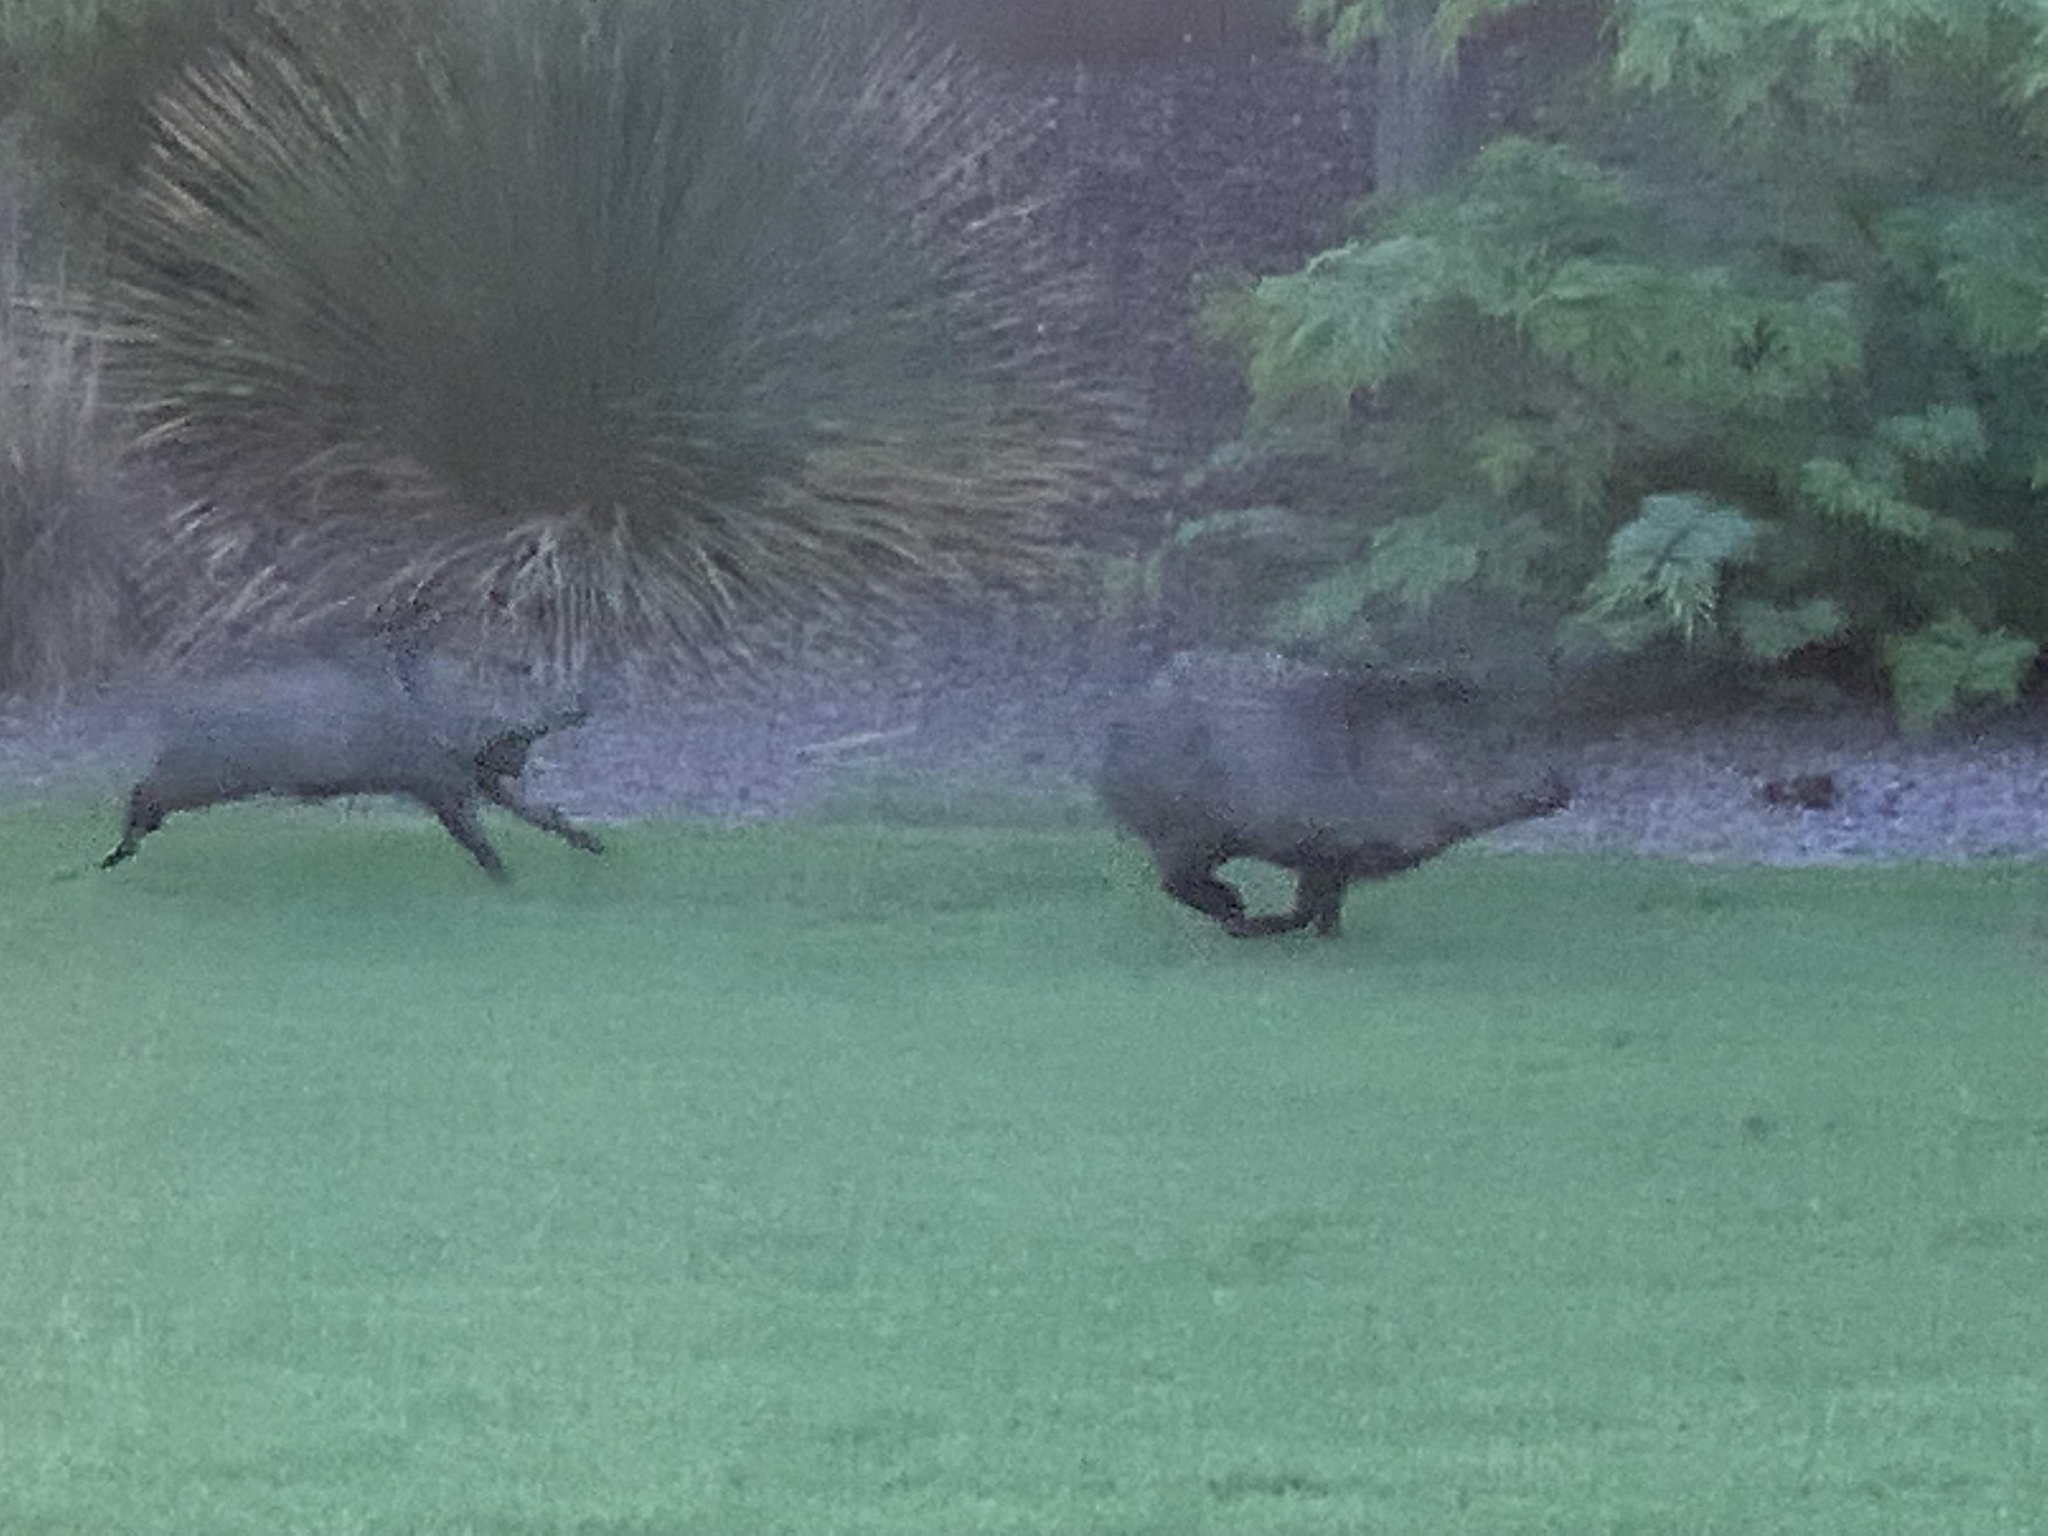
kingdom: Animalia
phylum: Chordata
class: Mammalia
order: Artiodactyla
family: Tayassuidae
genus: Pecari
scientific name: Pecari tajacu
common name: Collared peccary
